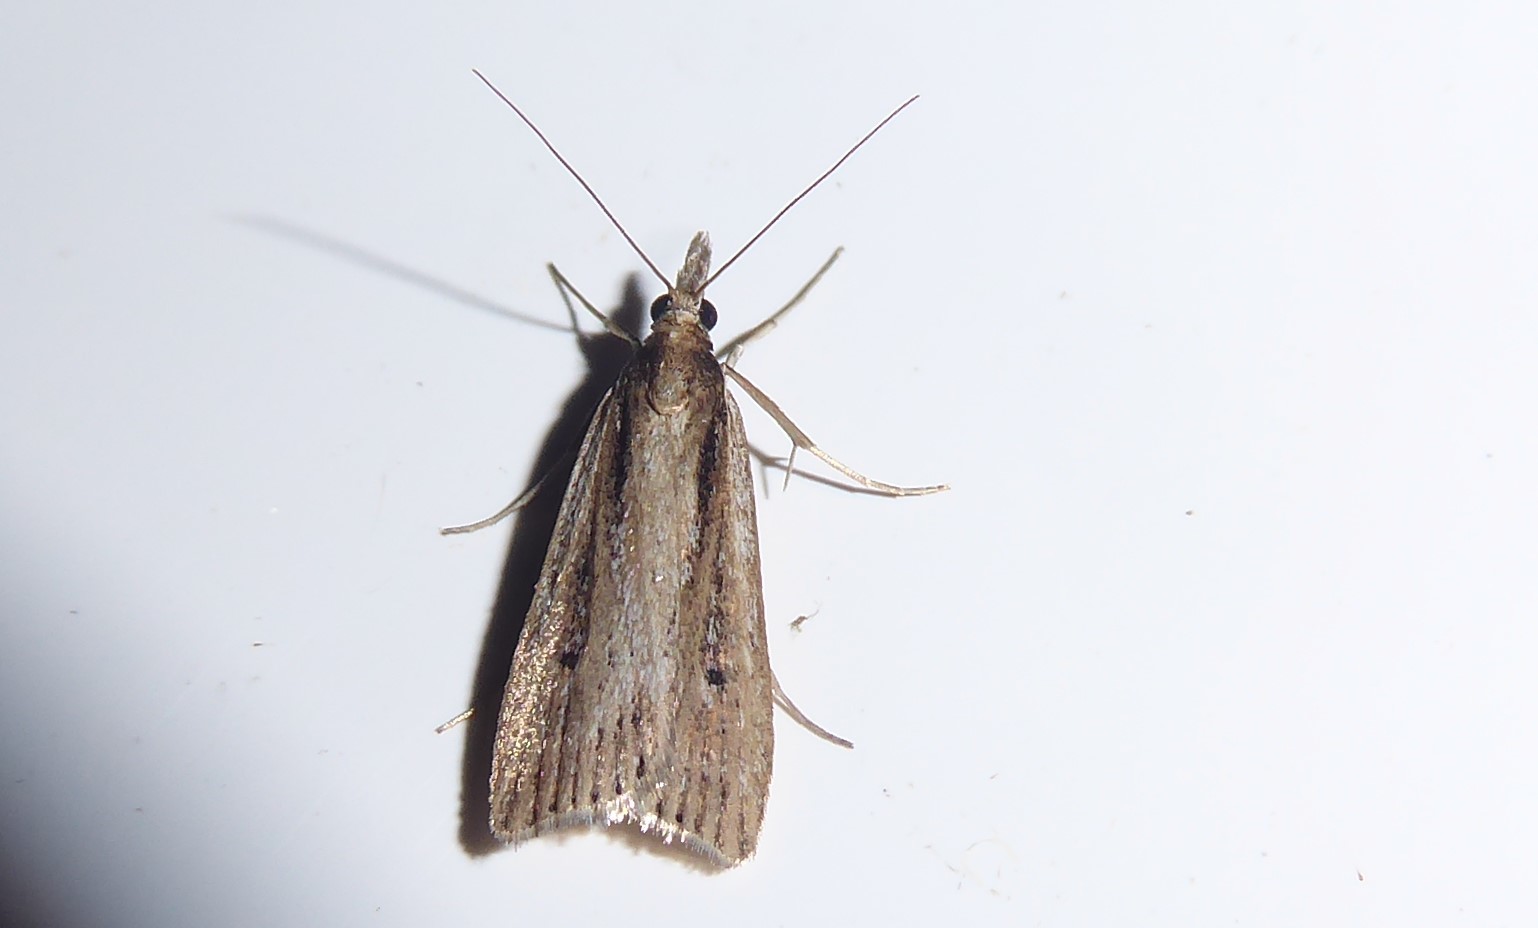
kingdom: Animalia
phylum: Arthropoda
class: Insecta
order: Lepidoptera
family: Crambidae
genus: Eudonia
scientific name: Eudonia sabulosella
